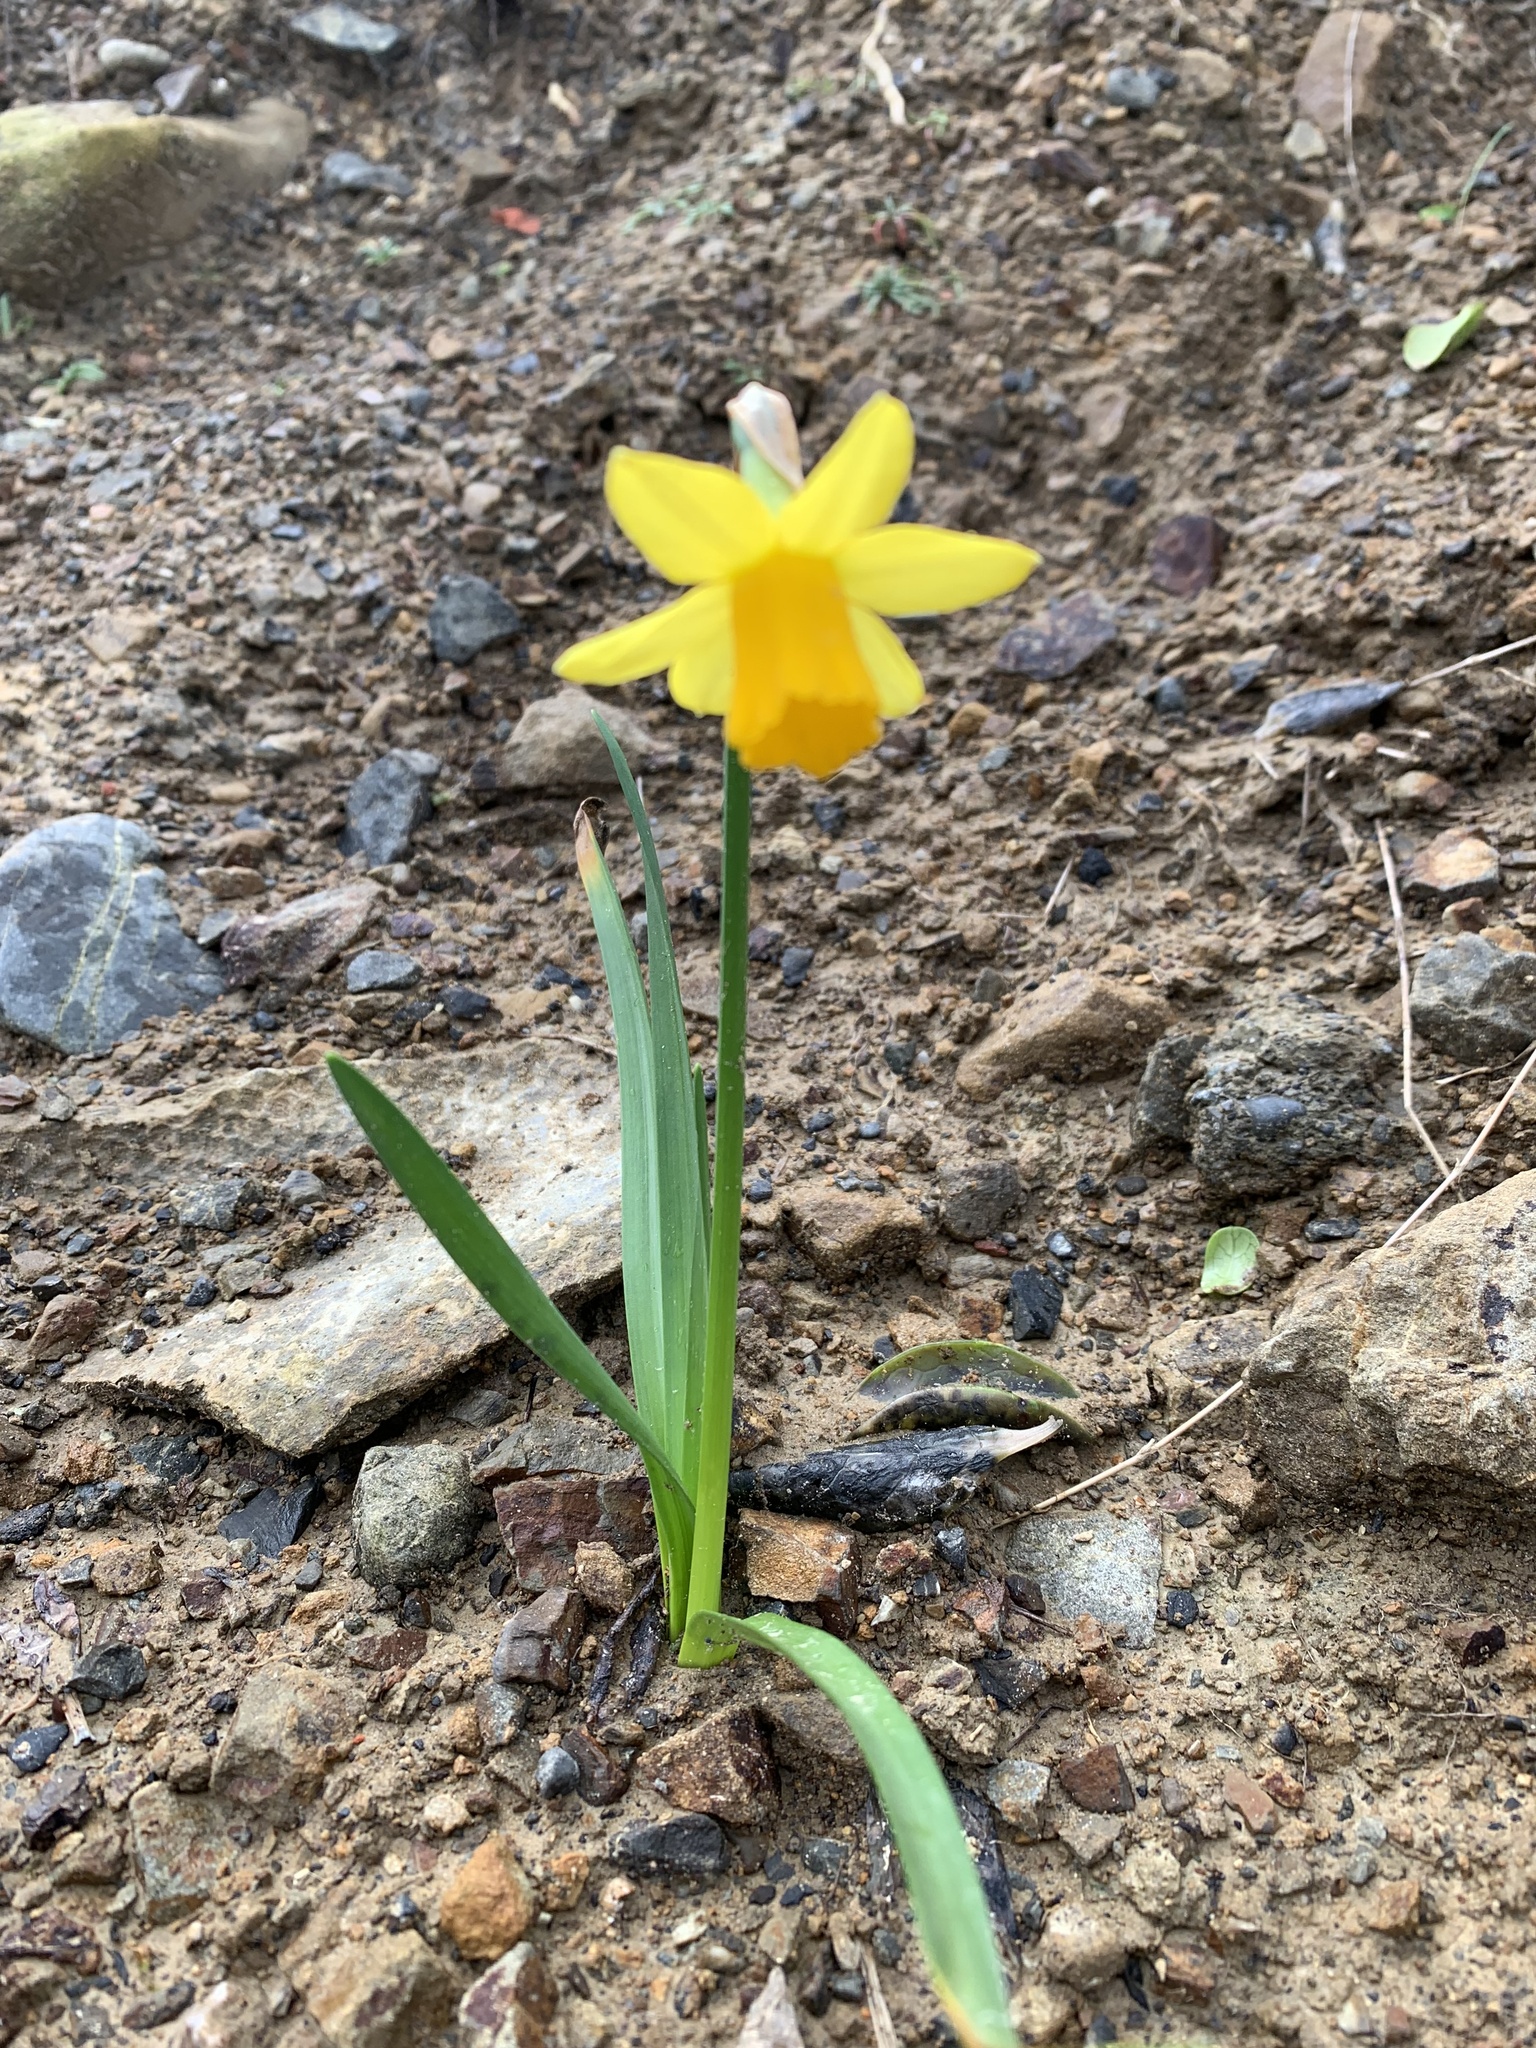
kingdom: Plantae
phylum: Tracheophyta
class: Liliopsida
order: Asparagales
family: Amaryllidaceae
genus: Narcissus
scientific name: Narcissus pseudonarcissus
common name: Daffodil
